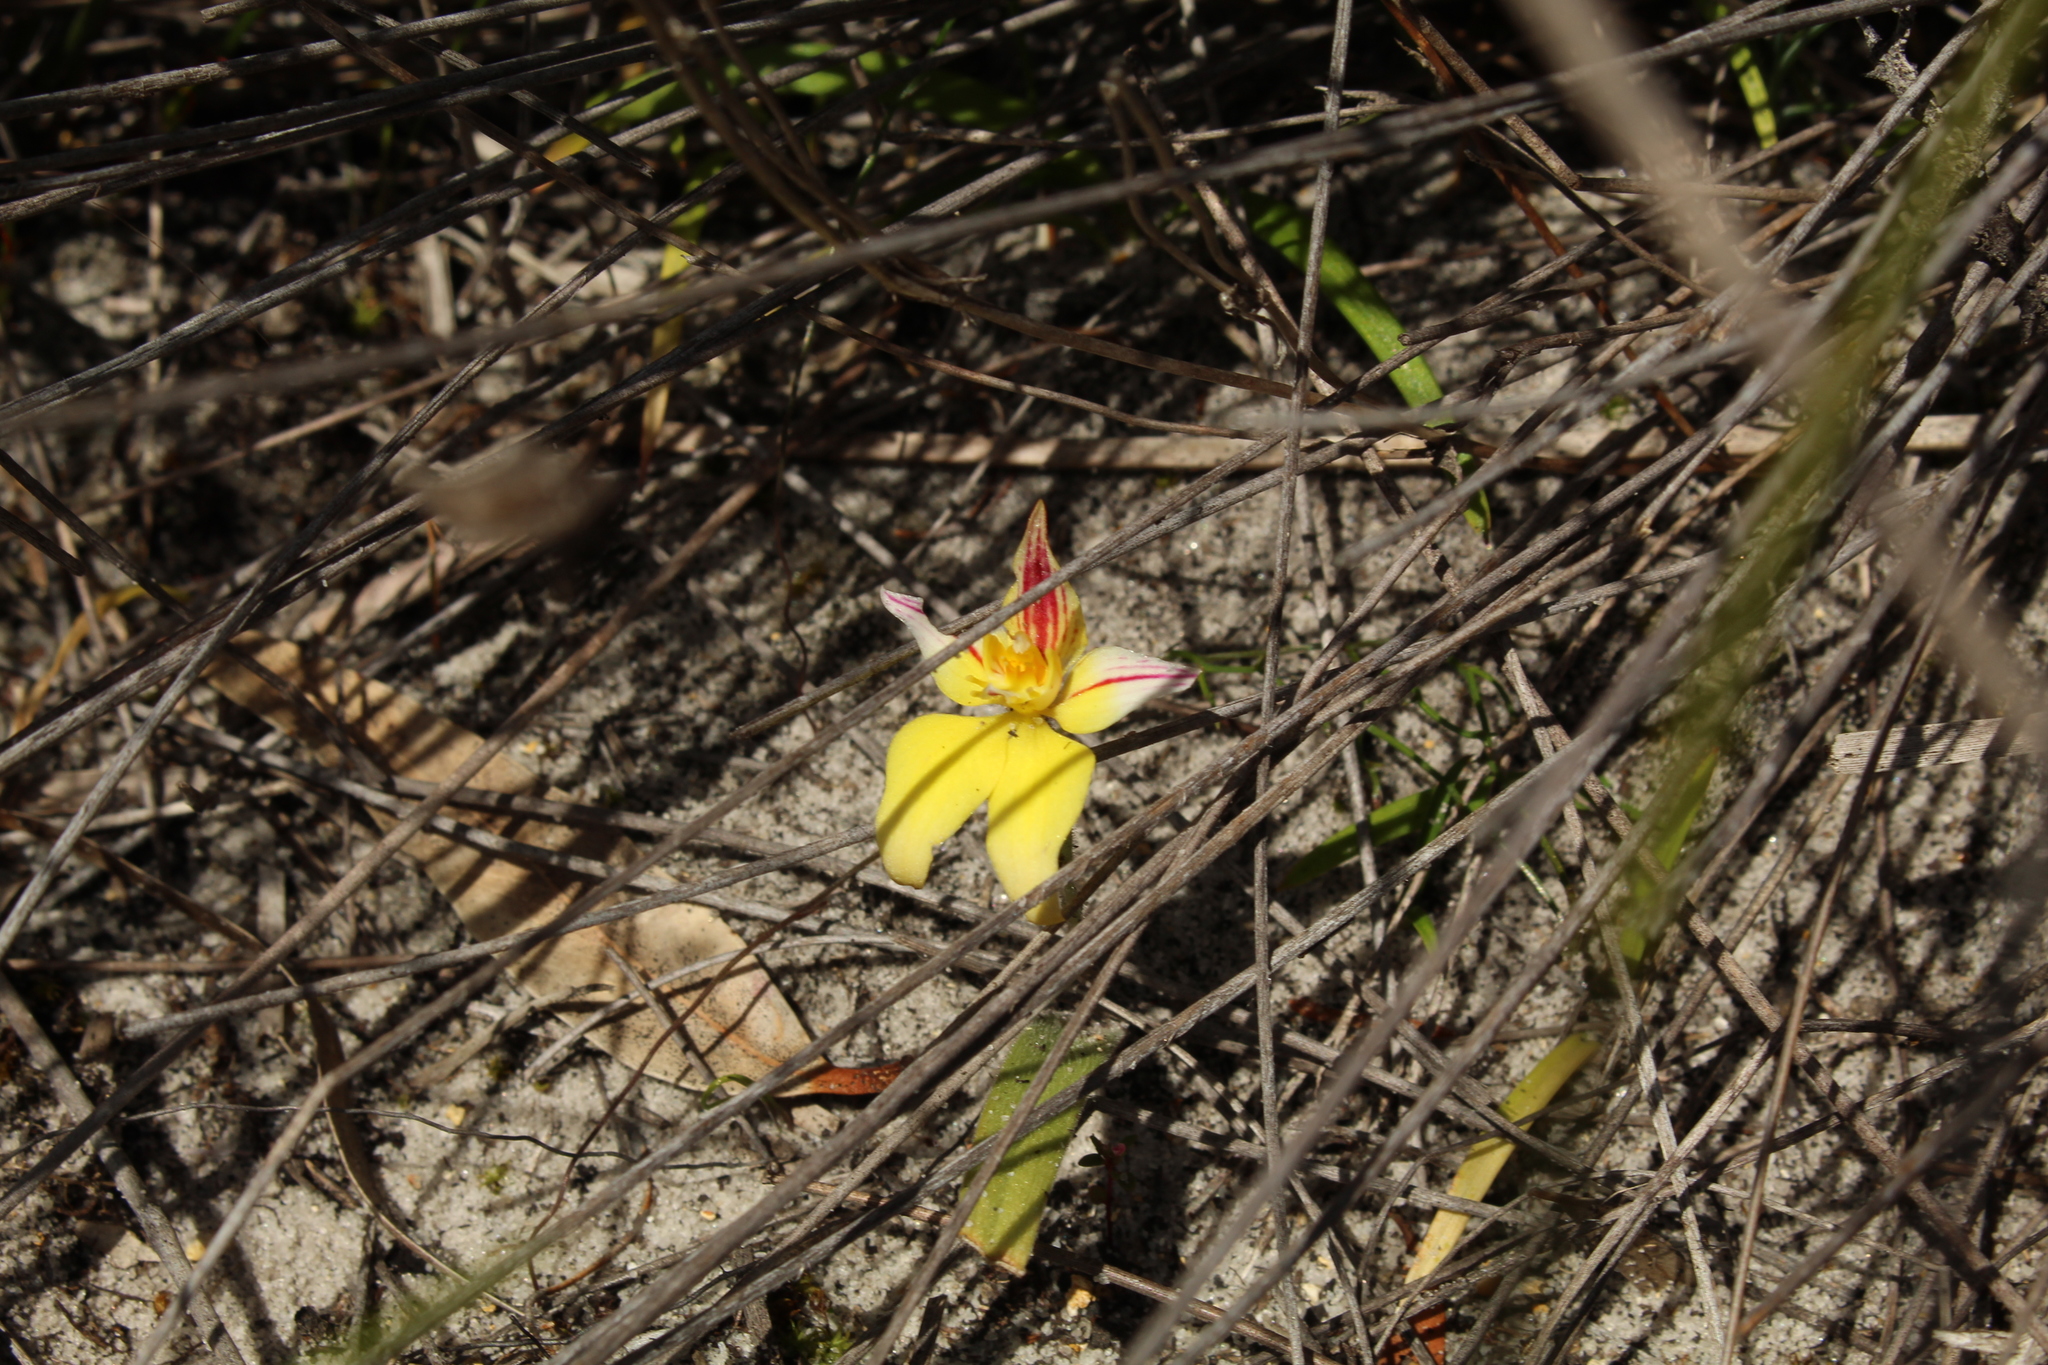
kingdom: Plantae
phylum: Tracheophyta
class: Liliopsida
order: Asparagales
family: Orchidaceae
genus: Caladenia
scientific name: Caladenia flava
